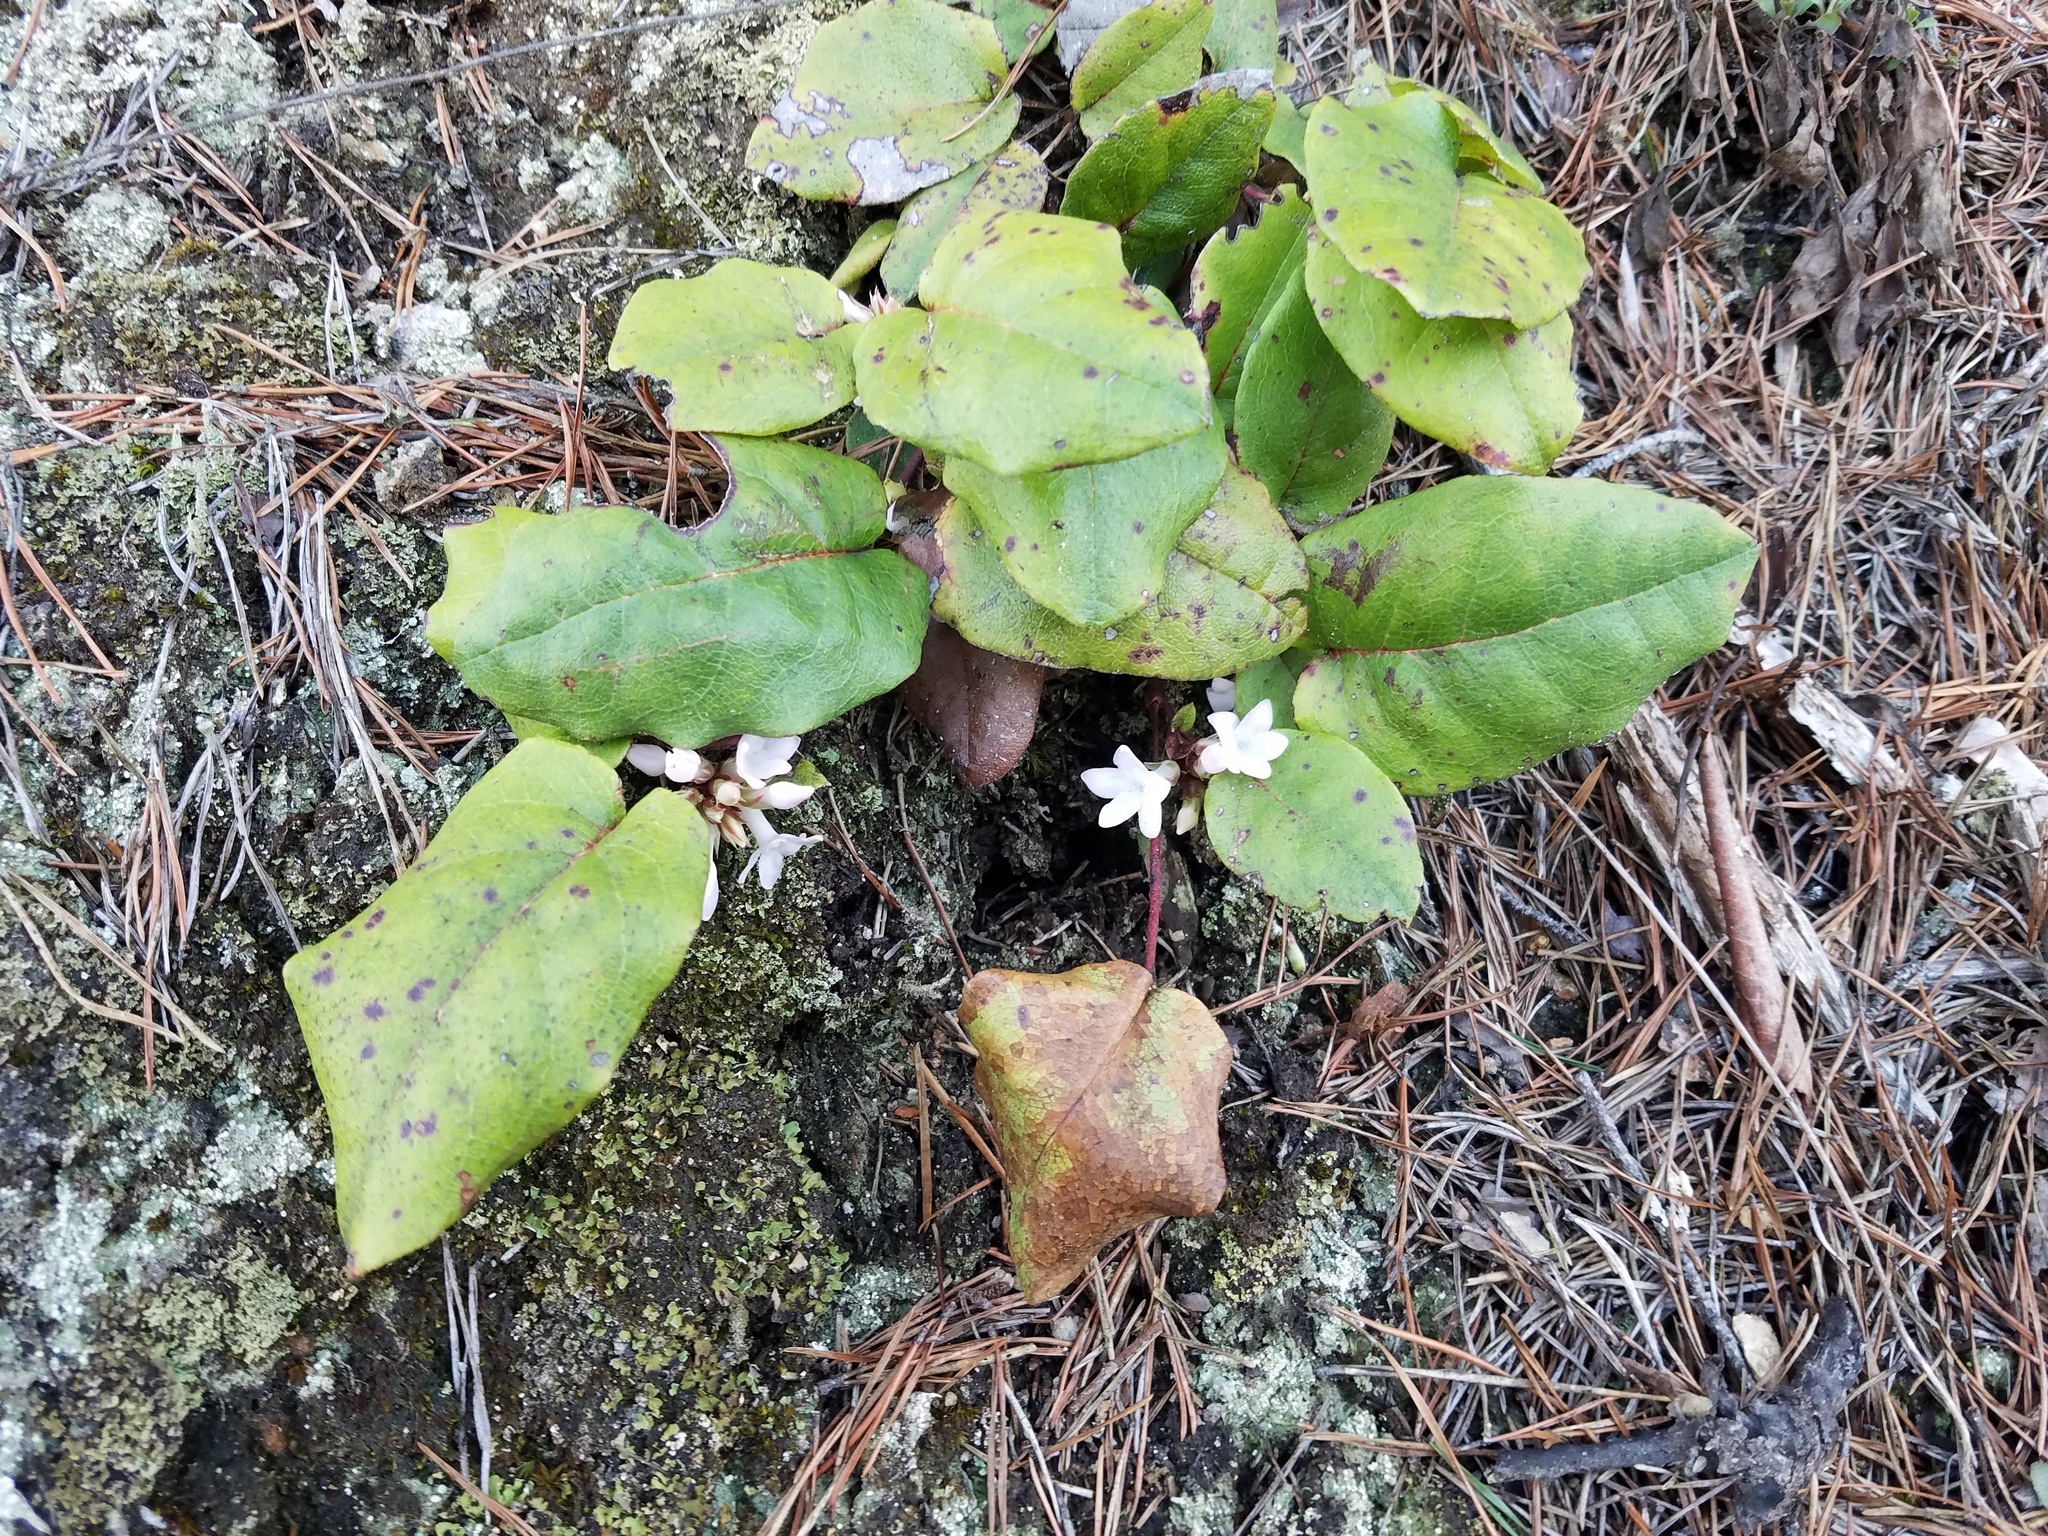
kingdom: Plantae
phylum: Tracheophyta
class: Magnoliopsida
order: Ericales
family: Ericaceae
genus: Epigaea
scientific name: Epigaea repens
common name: Gravelroot
